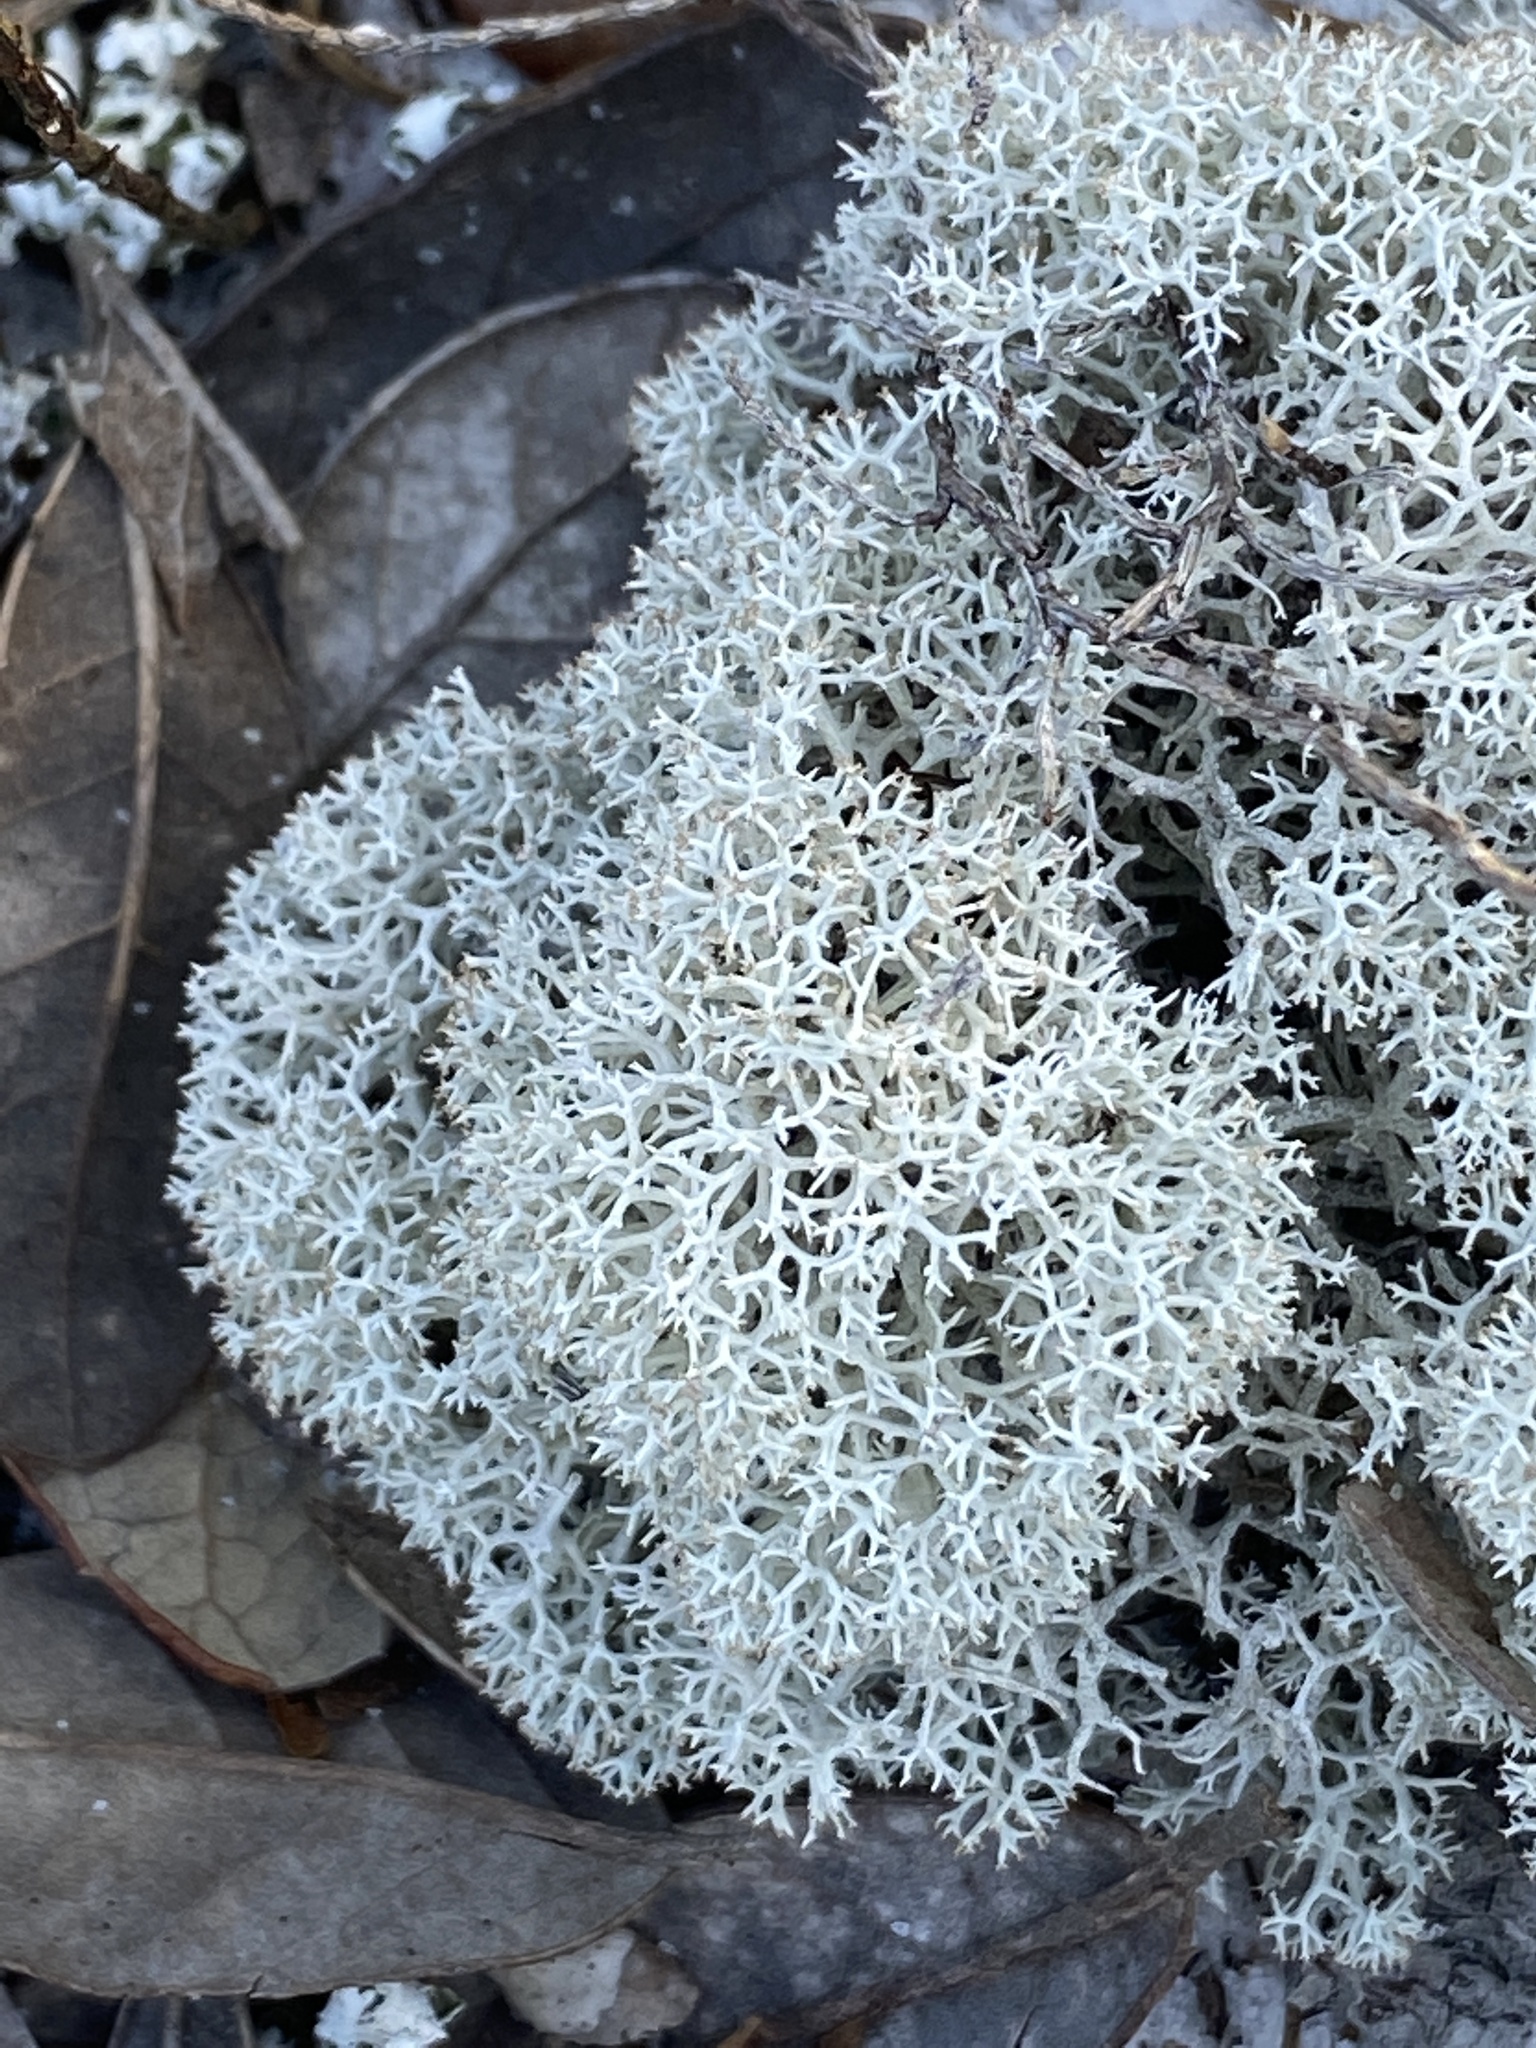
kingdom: Fungi
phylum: Ascomycota
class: Lecanoromycetes
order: Lecanorales
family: Cladoniaceae
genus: Cladonia
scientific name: Cladonia evansii
